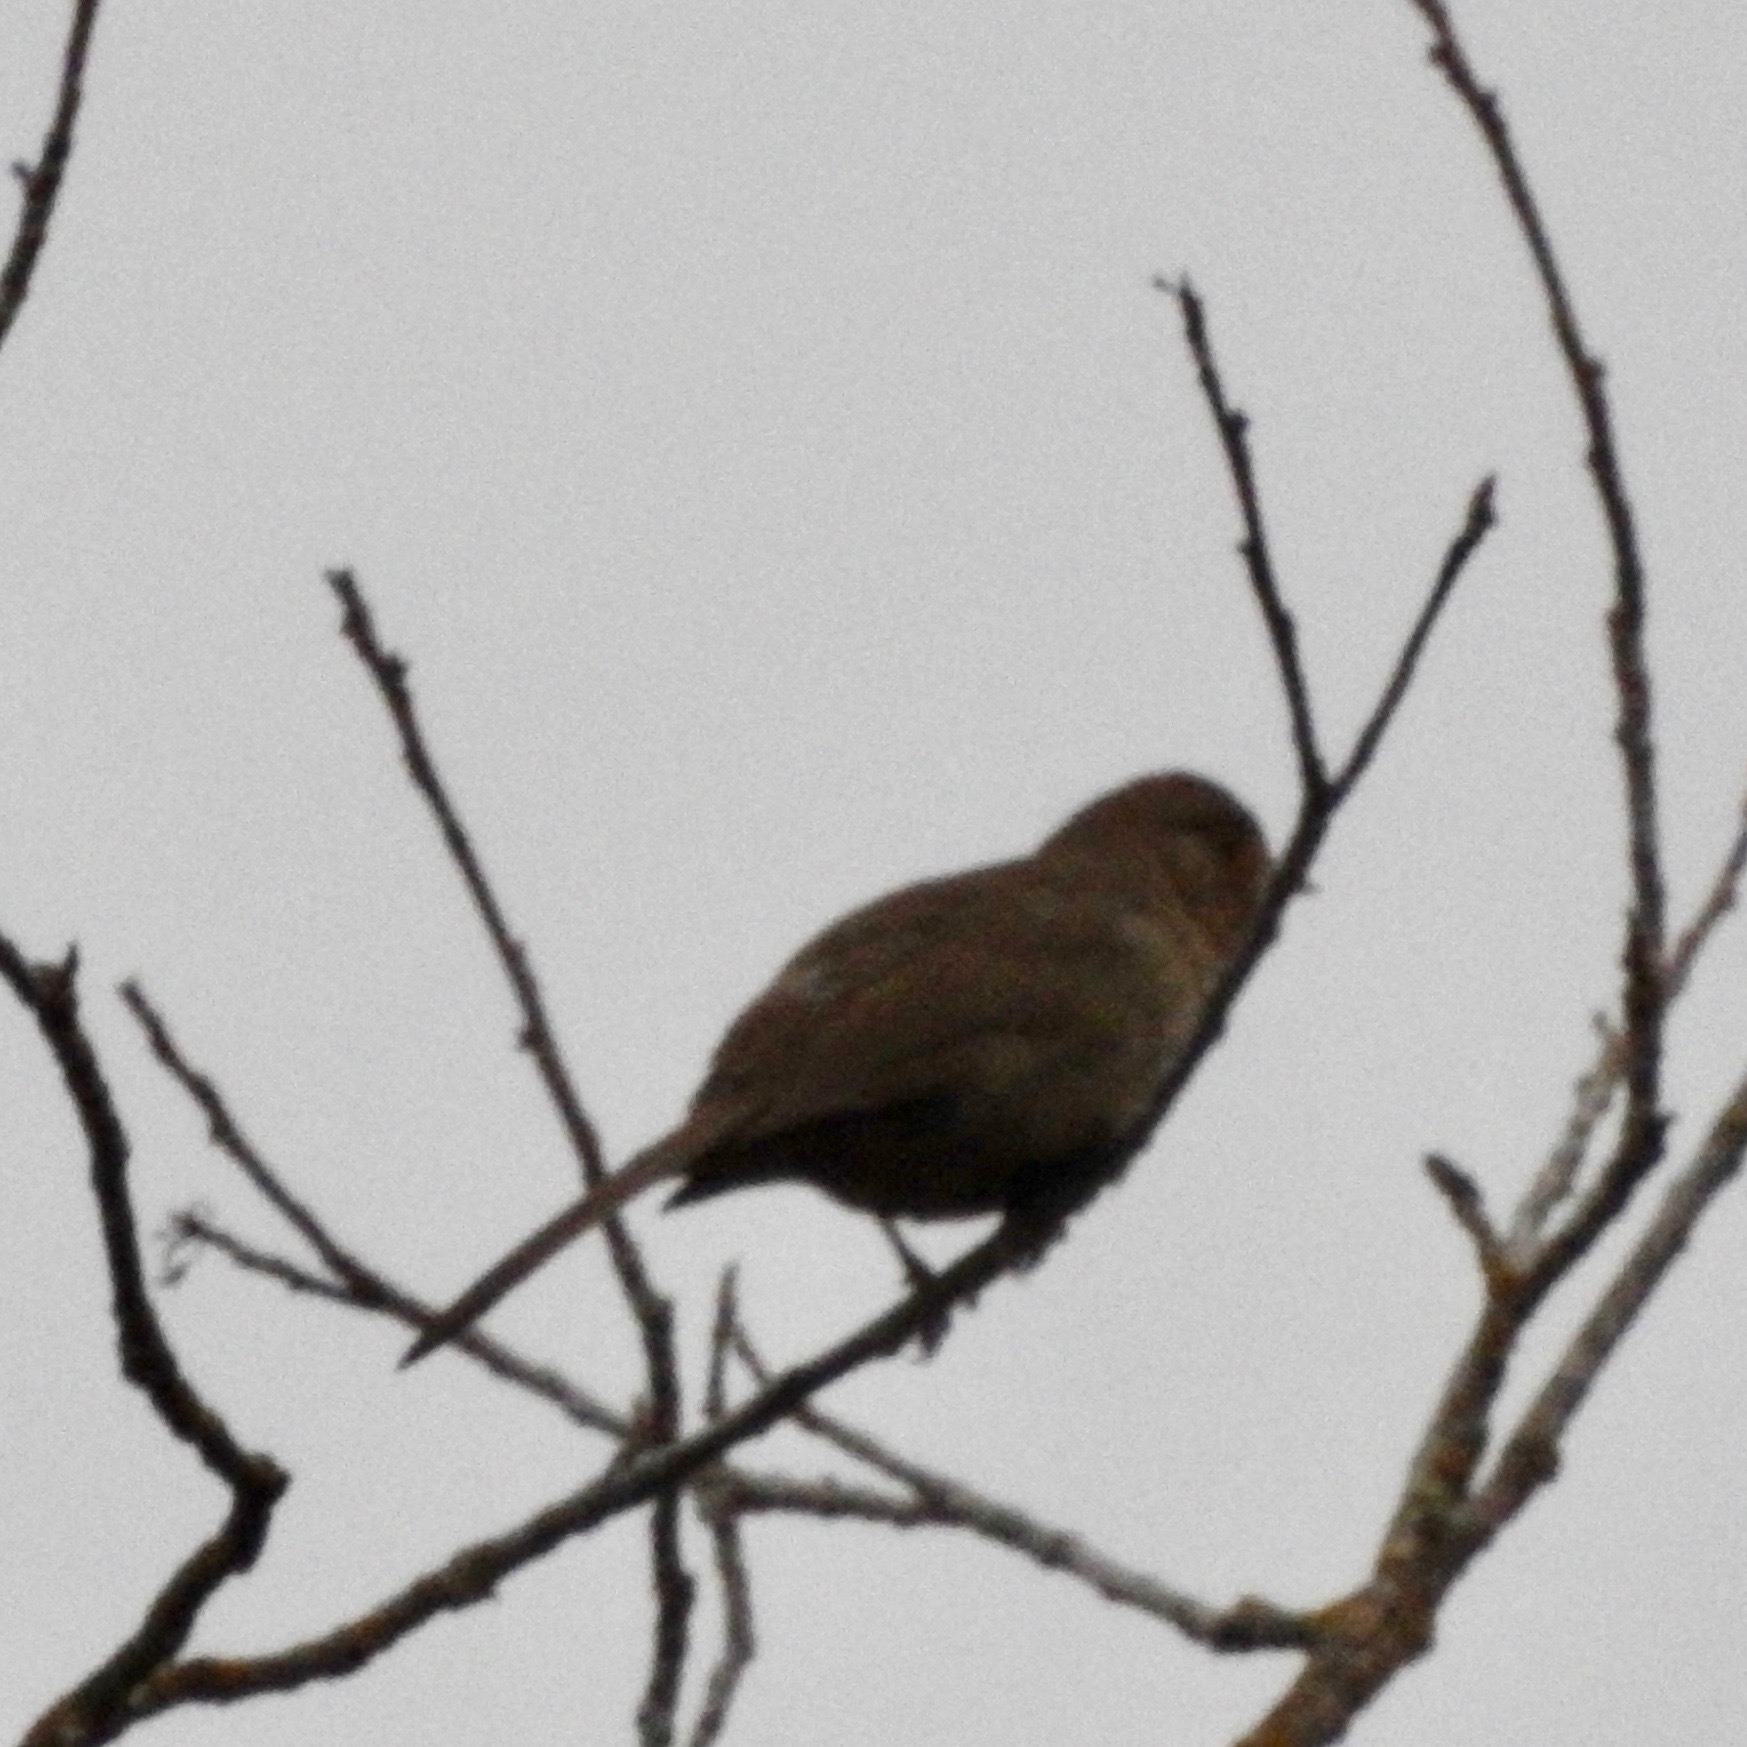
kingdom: Animalia
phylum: Chordata
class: Aves
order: Passeriformes
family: Passerellidae
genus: Melozone
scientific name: Melozone crissalis
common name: California towhee
